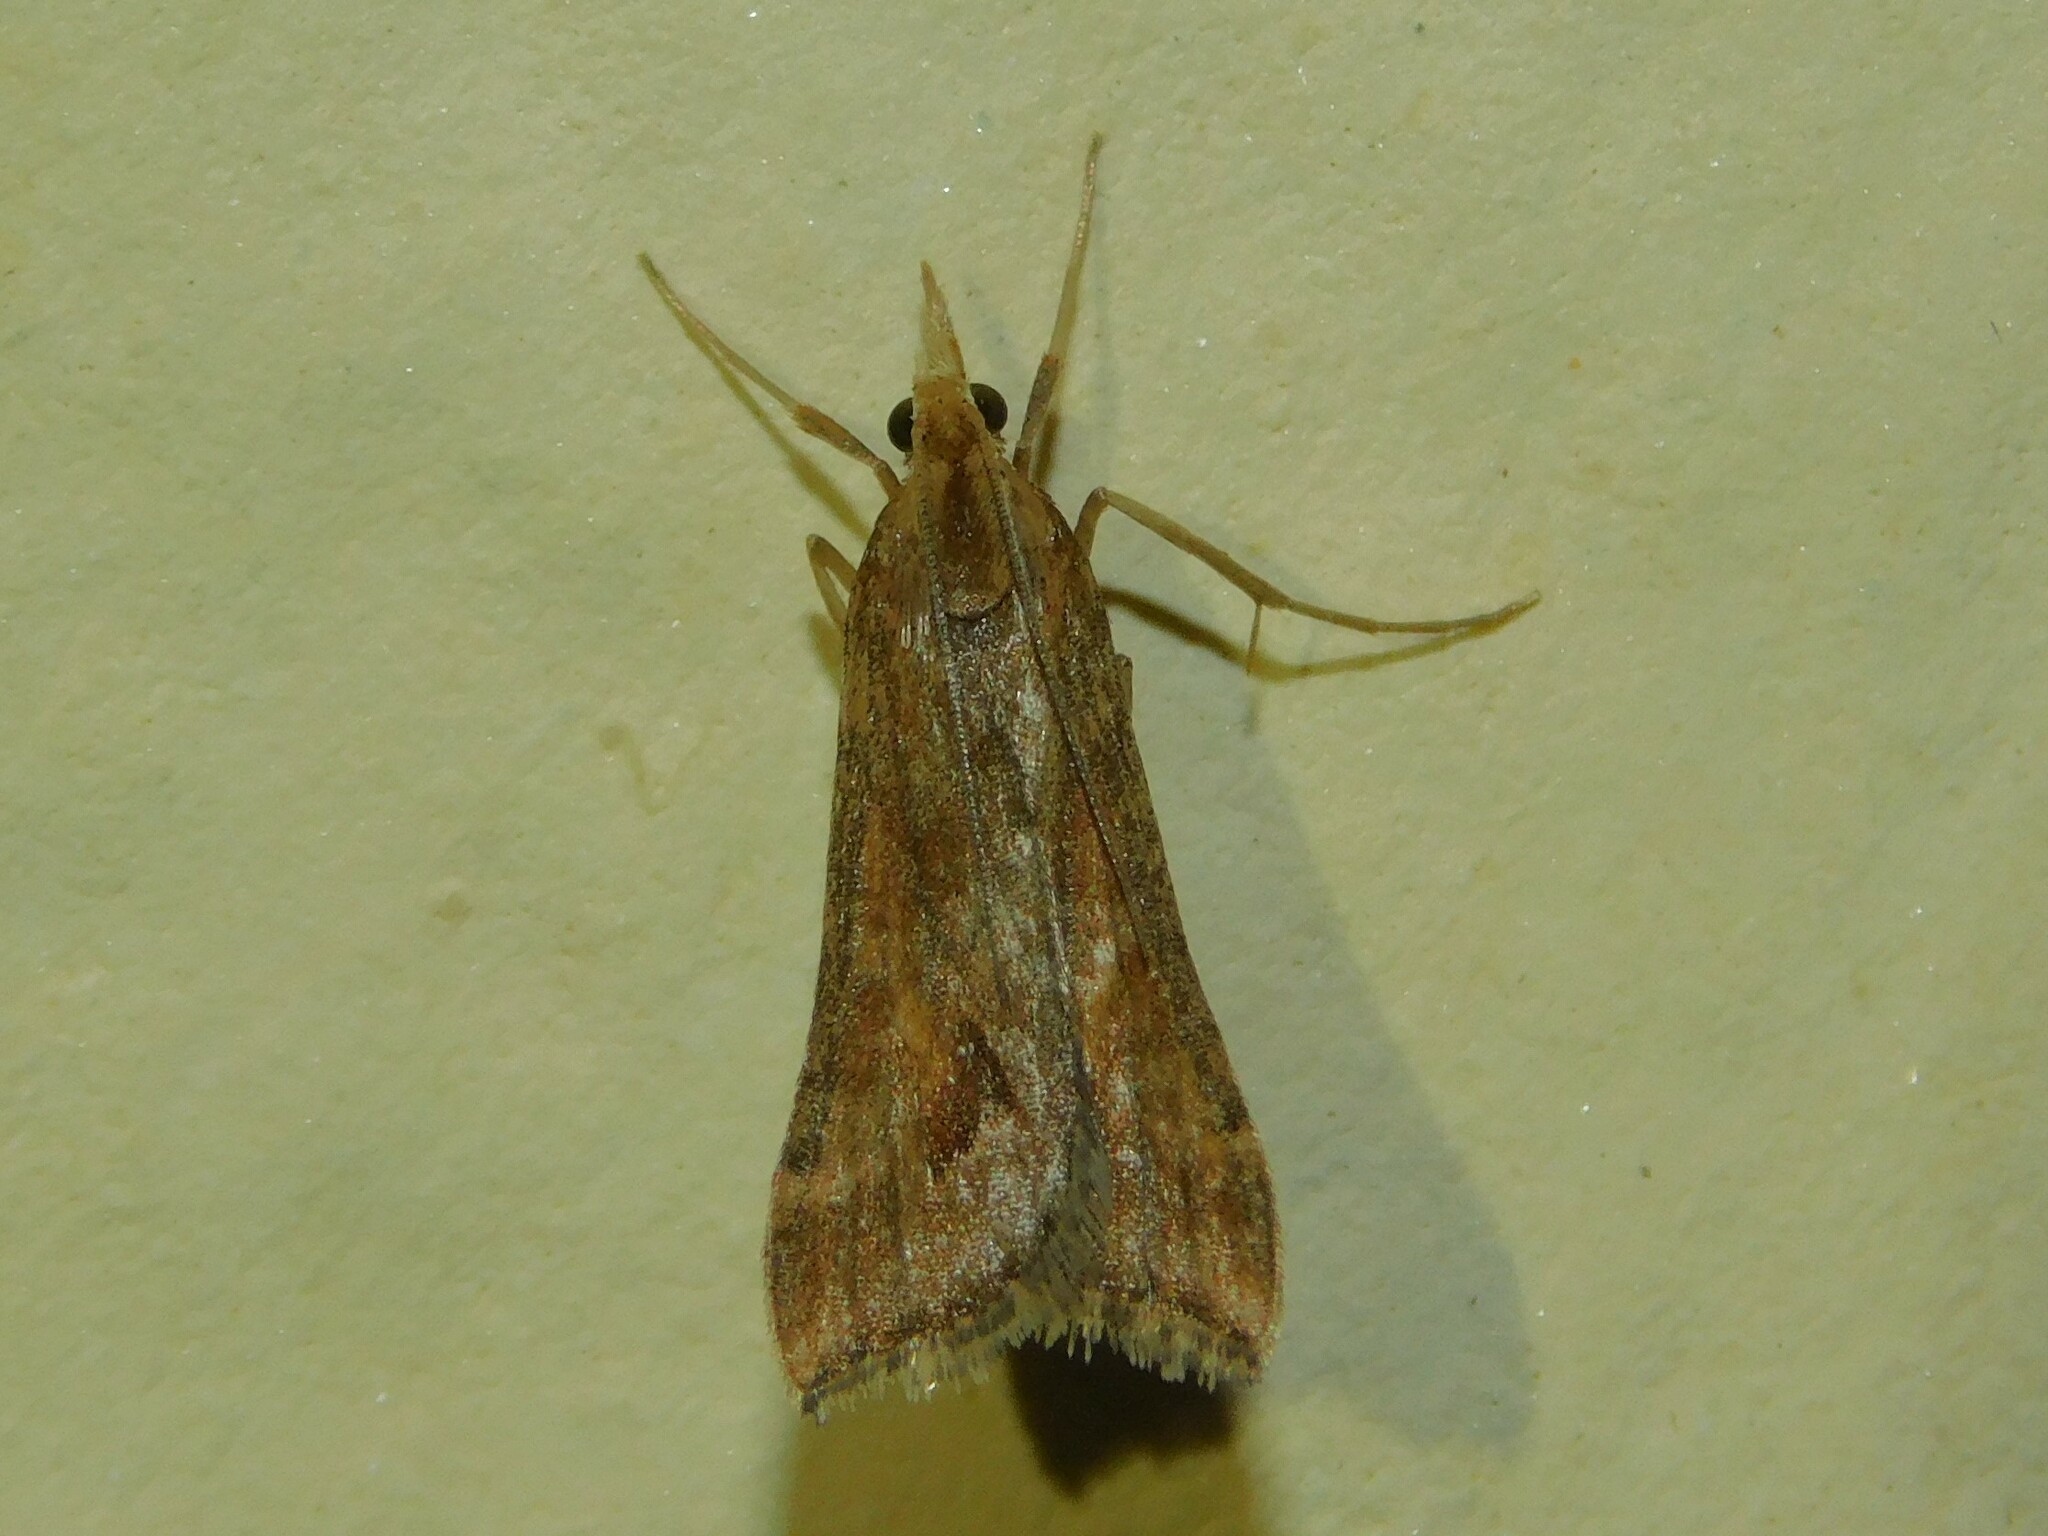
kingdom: Animalia
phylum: Arthropoda
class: Insecta
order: Lepidoptera
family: Crambidae
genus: Diasemia
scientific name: Diasemia monostigma
